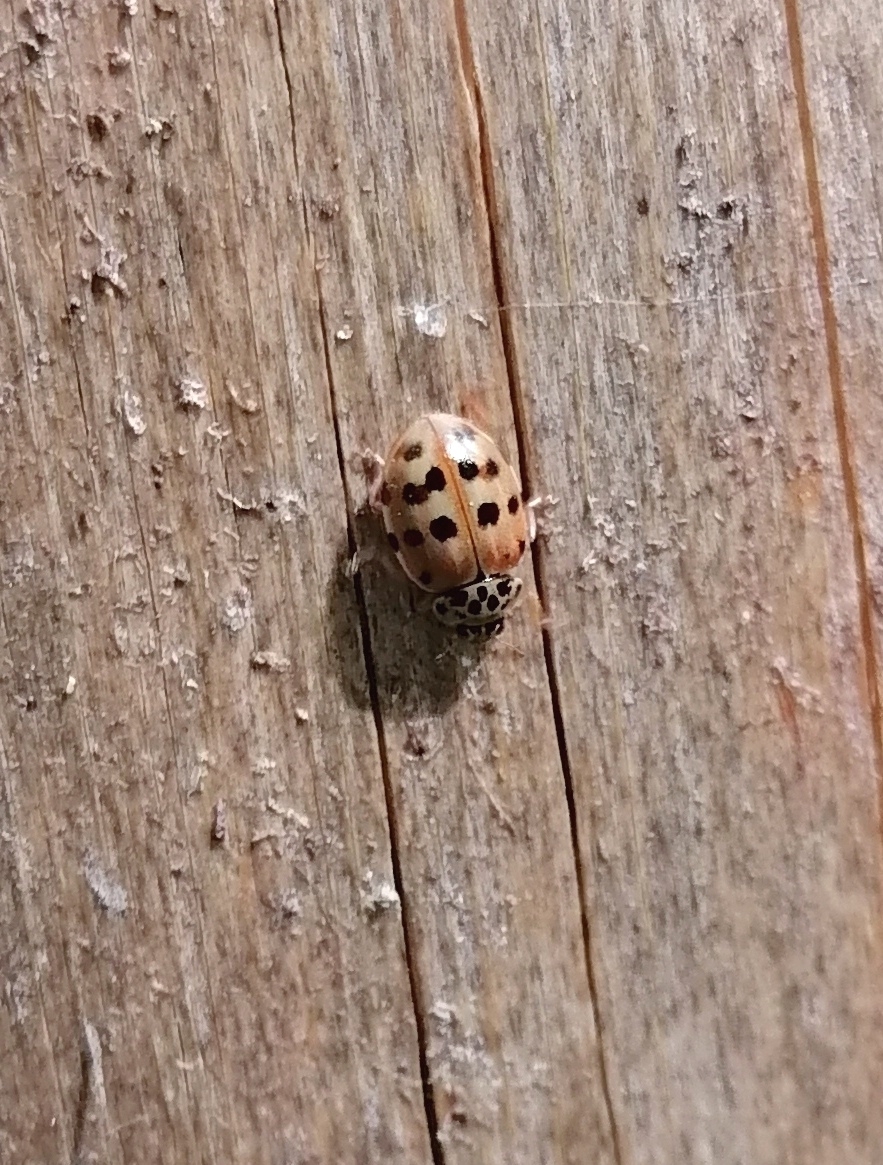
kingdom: Animalia
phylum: Arthropoda
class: Insecta
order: Coleoptera
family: Coccinellidae
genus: Harmonia
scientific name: Harmonia quadripunctata
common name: Cream-streaked ladybird
